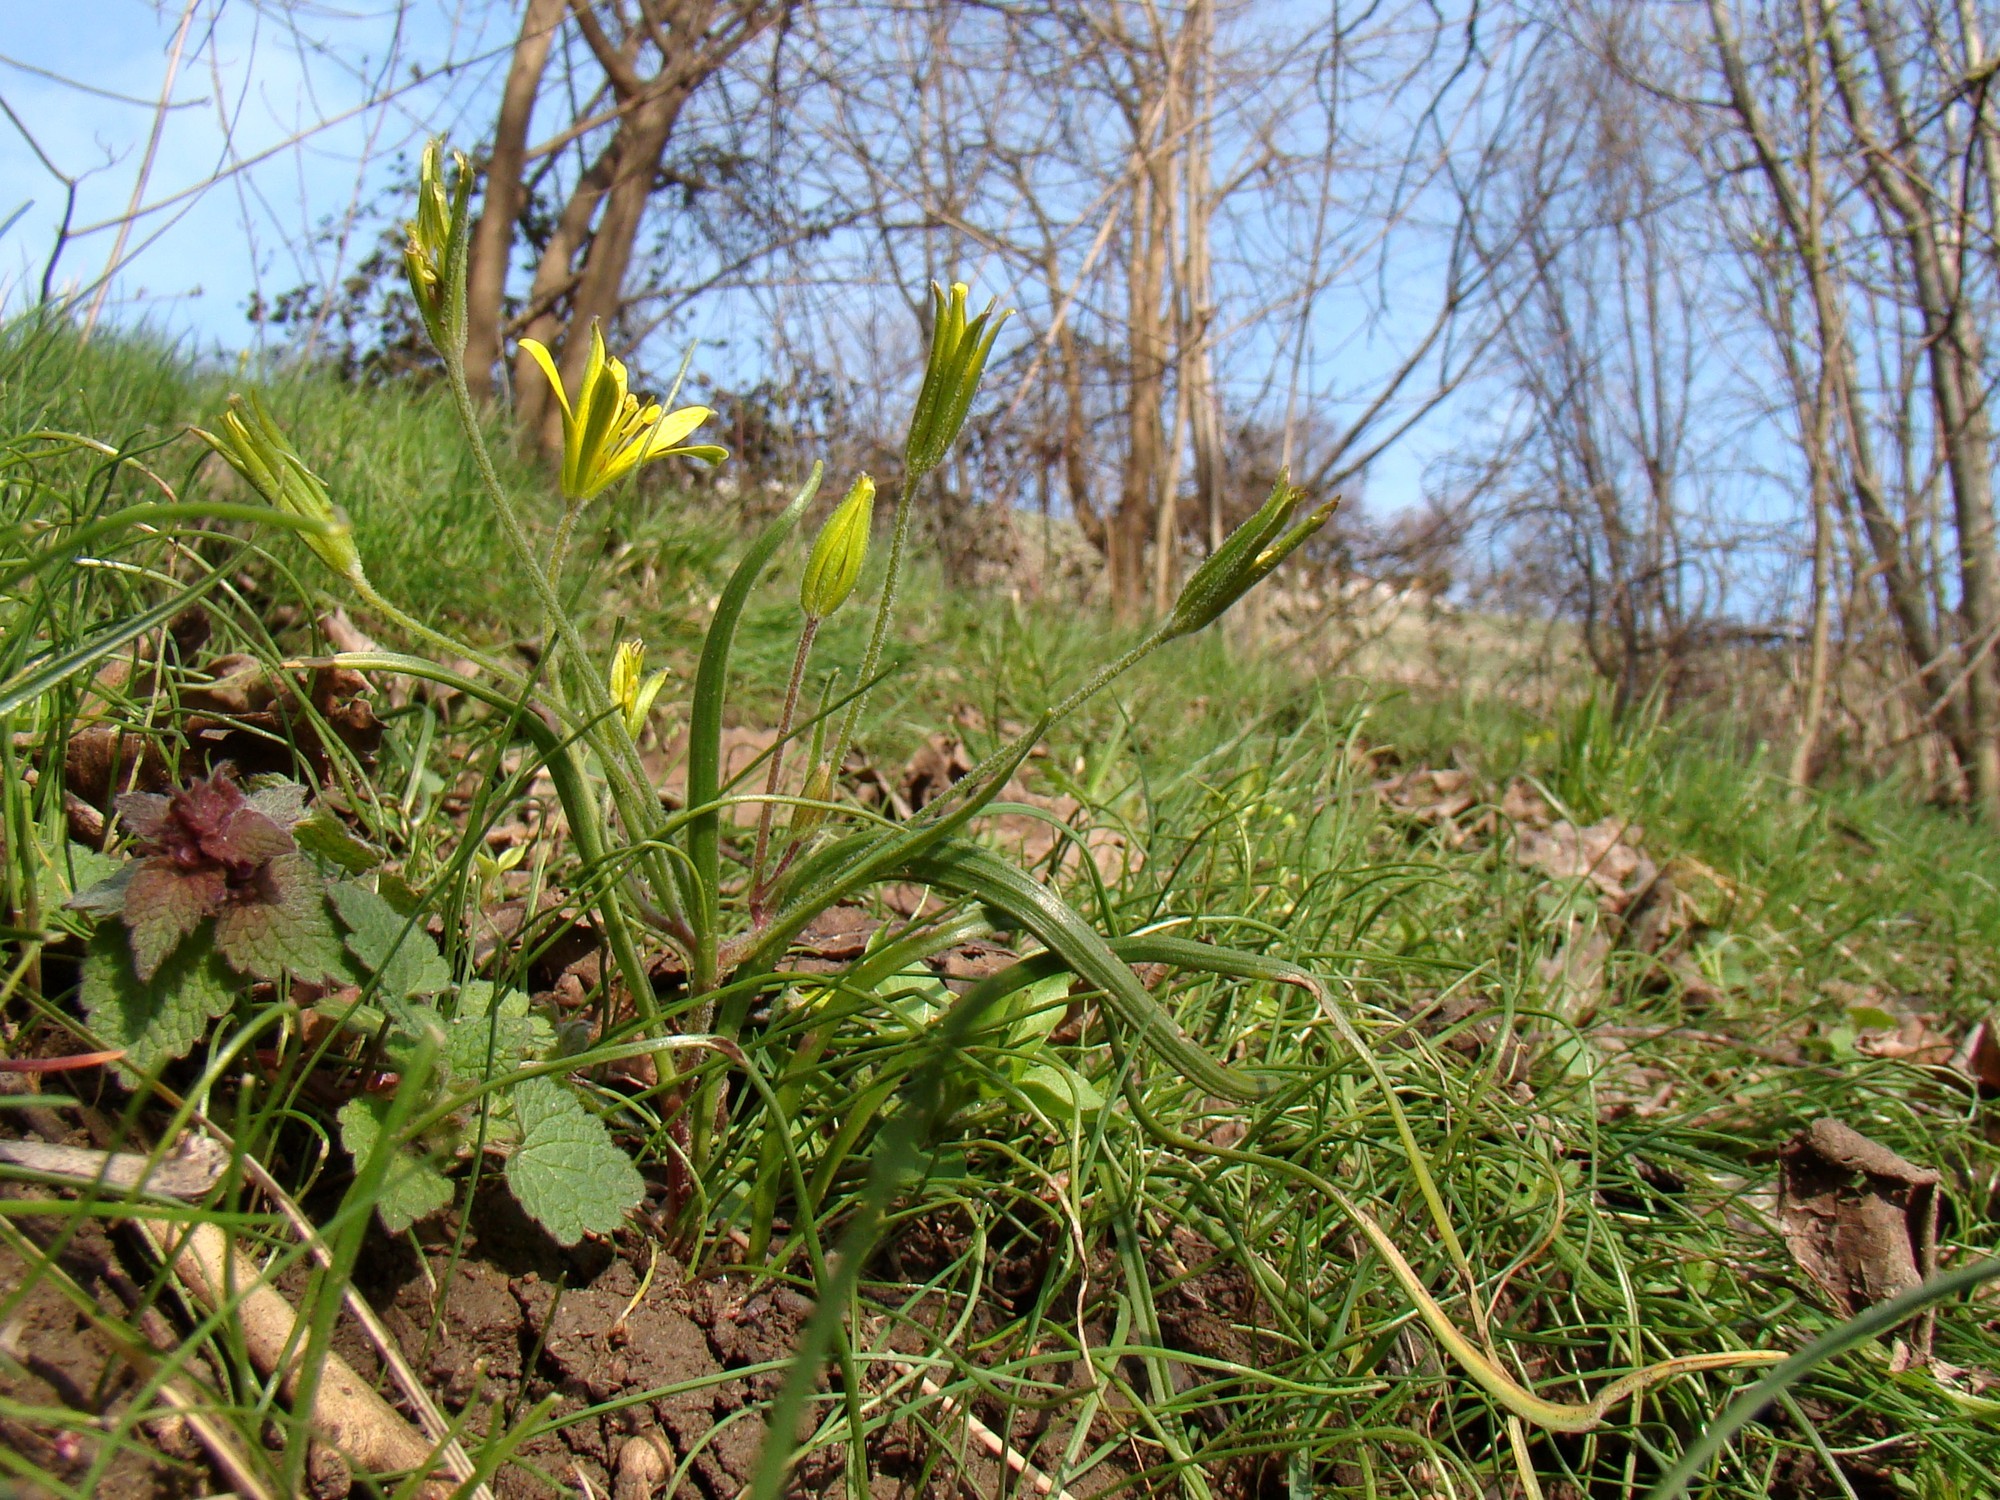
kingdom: Plantae
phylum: Tracheophyta
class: Liliopsida
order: Liliales
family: Liliaceae
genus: Gagea
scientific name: Gagea villosa
